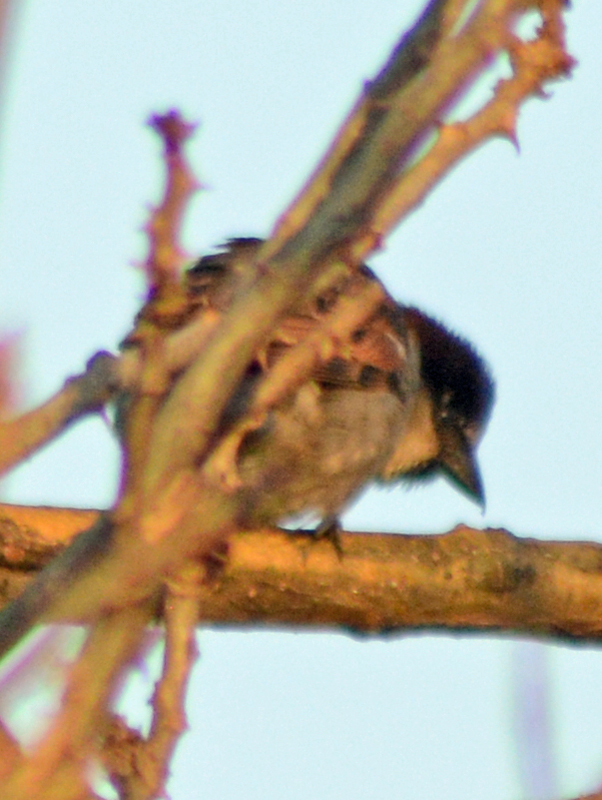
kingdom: Animalia
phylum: Chordata
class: Aves
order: Passeriformes
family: Passeridae
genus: Passer
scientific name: Passer domesticus
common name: House sparrow
